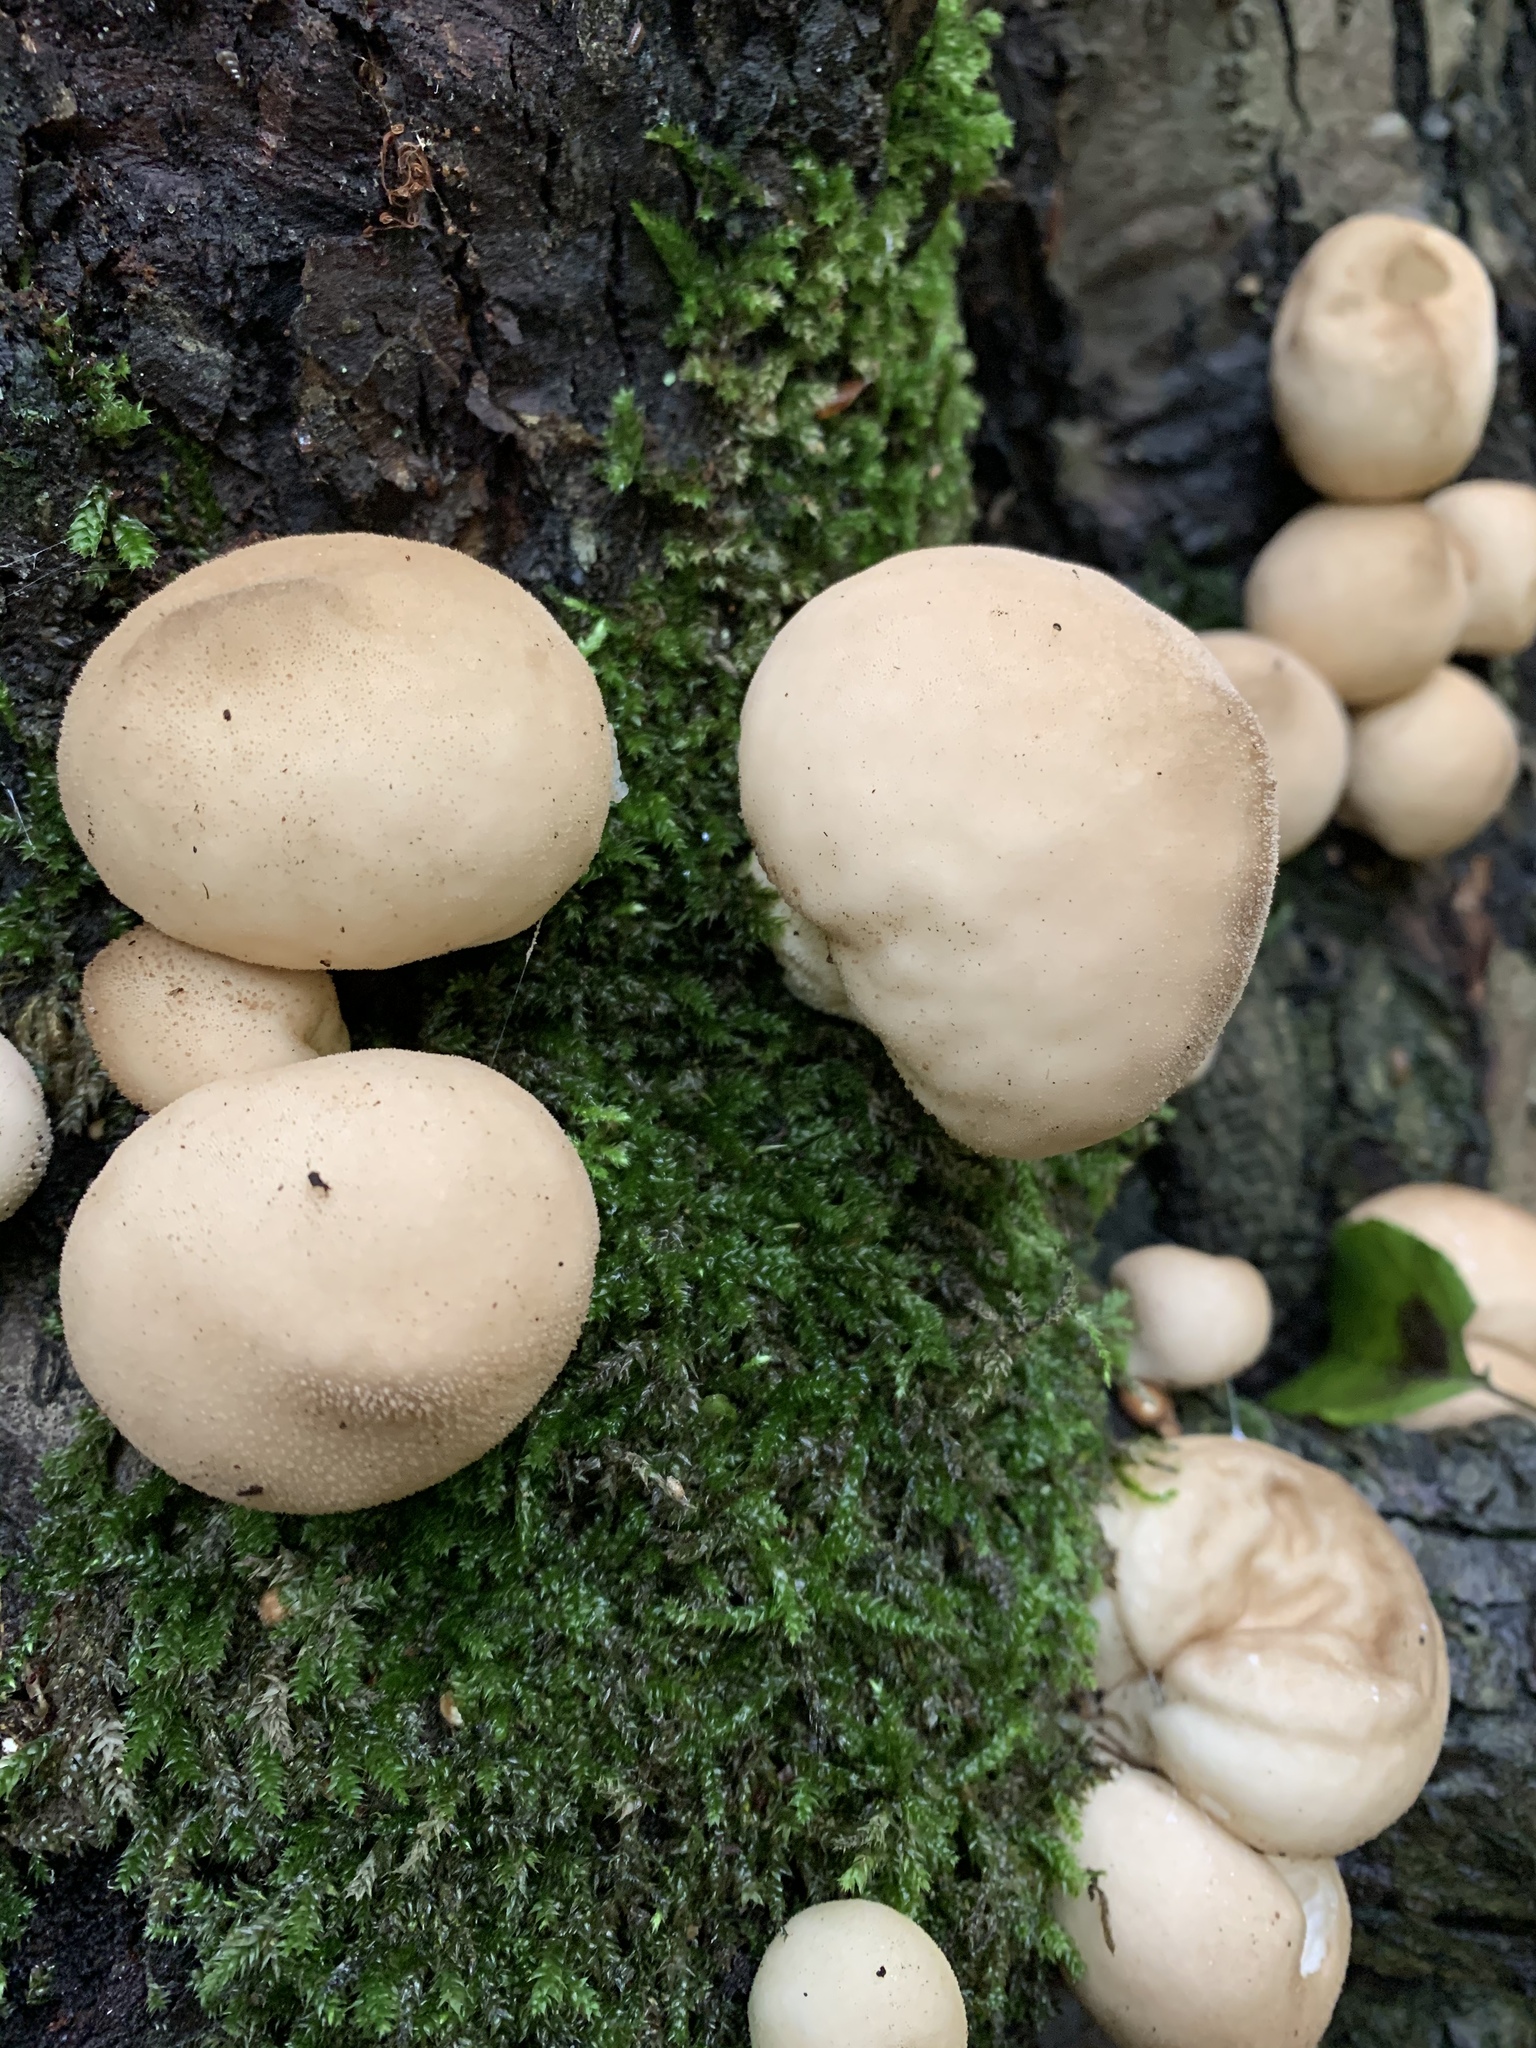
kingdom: Fungi
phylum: Basidiomycota
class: Agaricomycetes
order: Agaricales
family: Lycoperdaceae
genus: Apioperdon
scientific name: Apioperdon pyriforme
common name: Pear-shaped puffball
